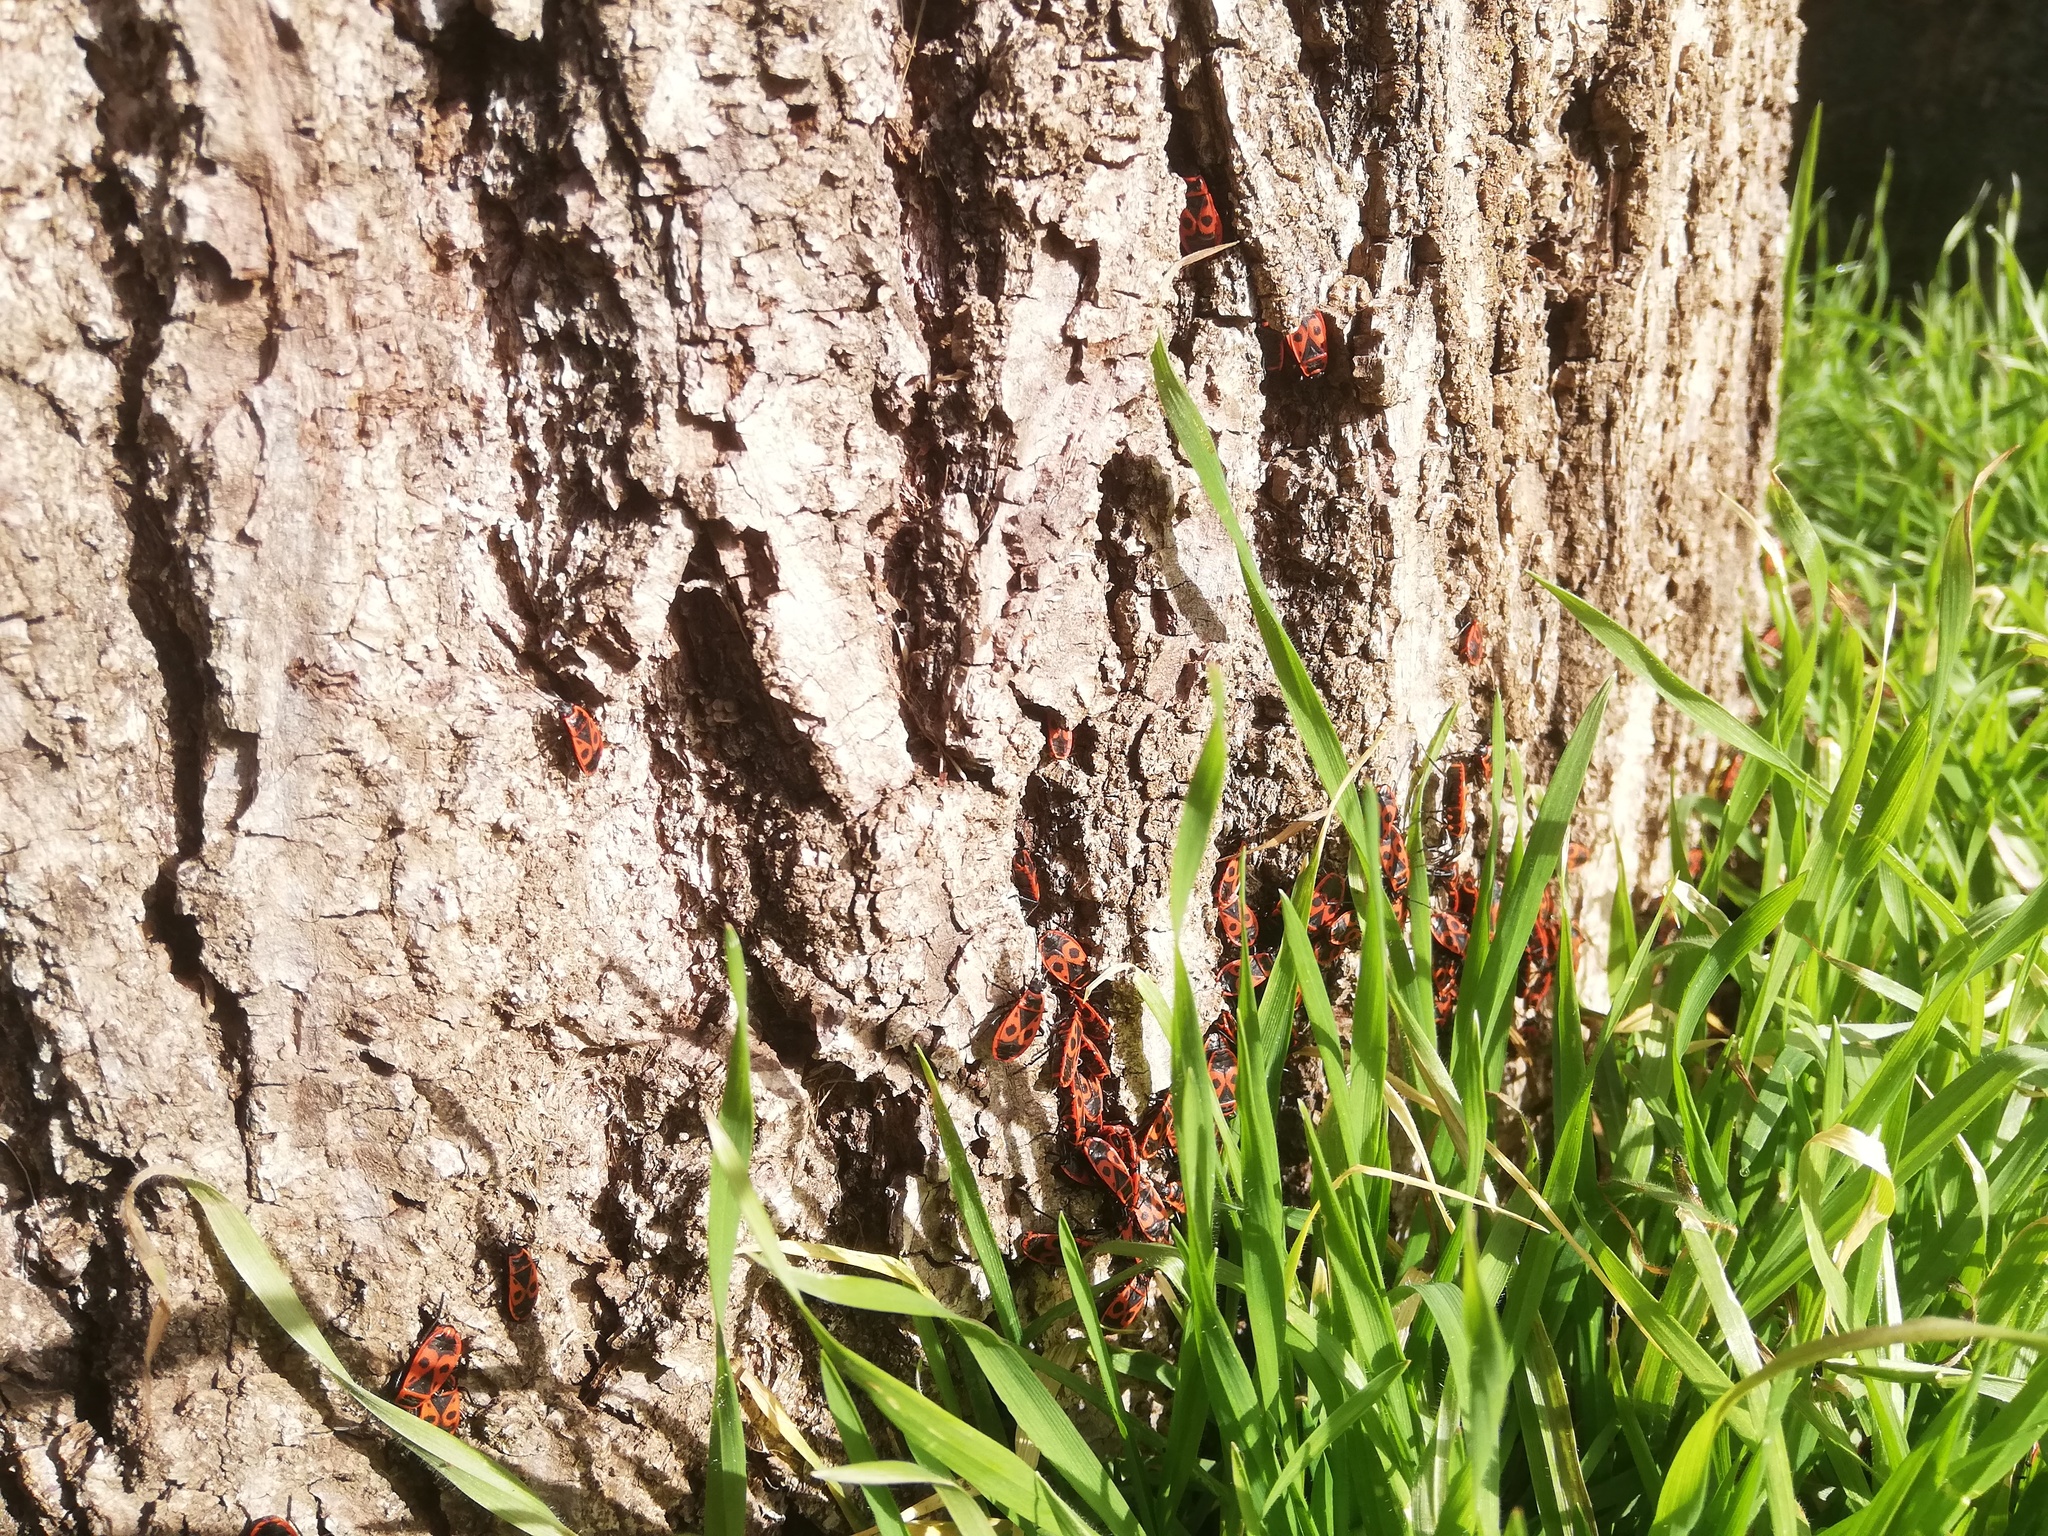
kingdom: Animalia
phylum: Arthropoda
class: Insecta
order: Hemiptera
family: Pyrrhocoridae
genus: Pyrrhocoris
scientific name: Pyrrhocoris apterus
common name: Firebug
